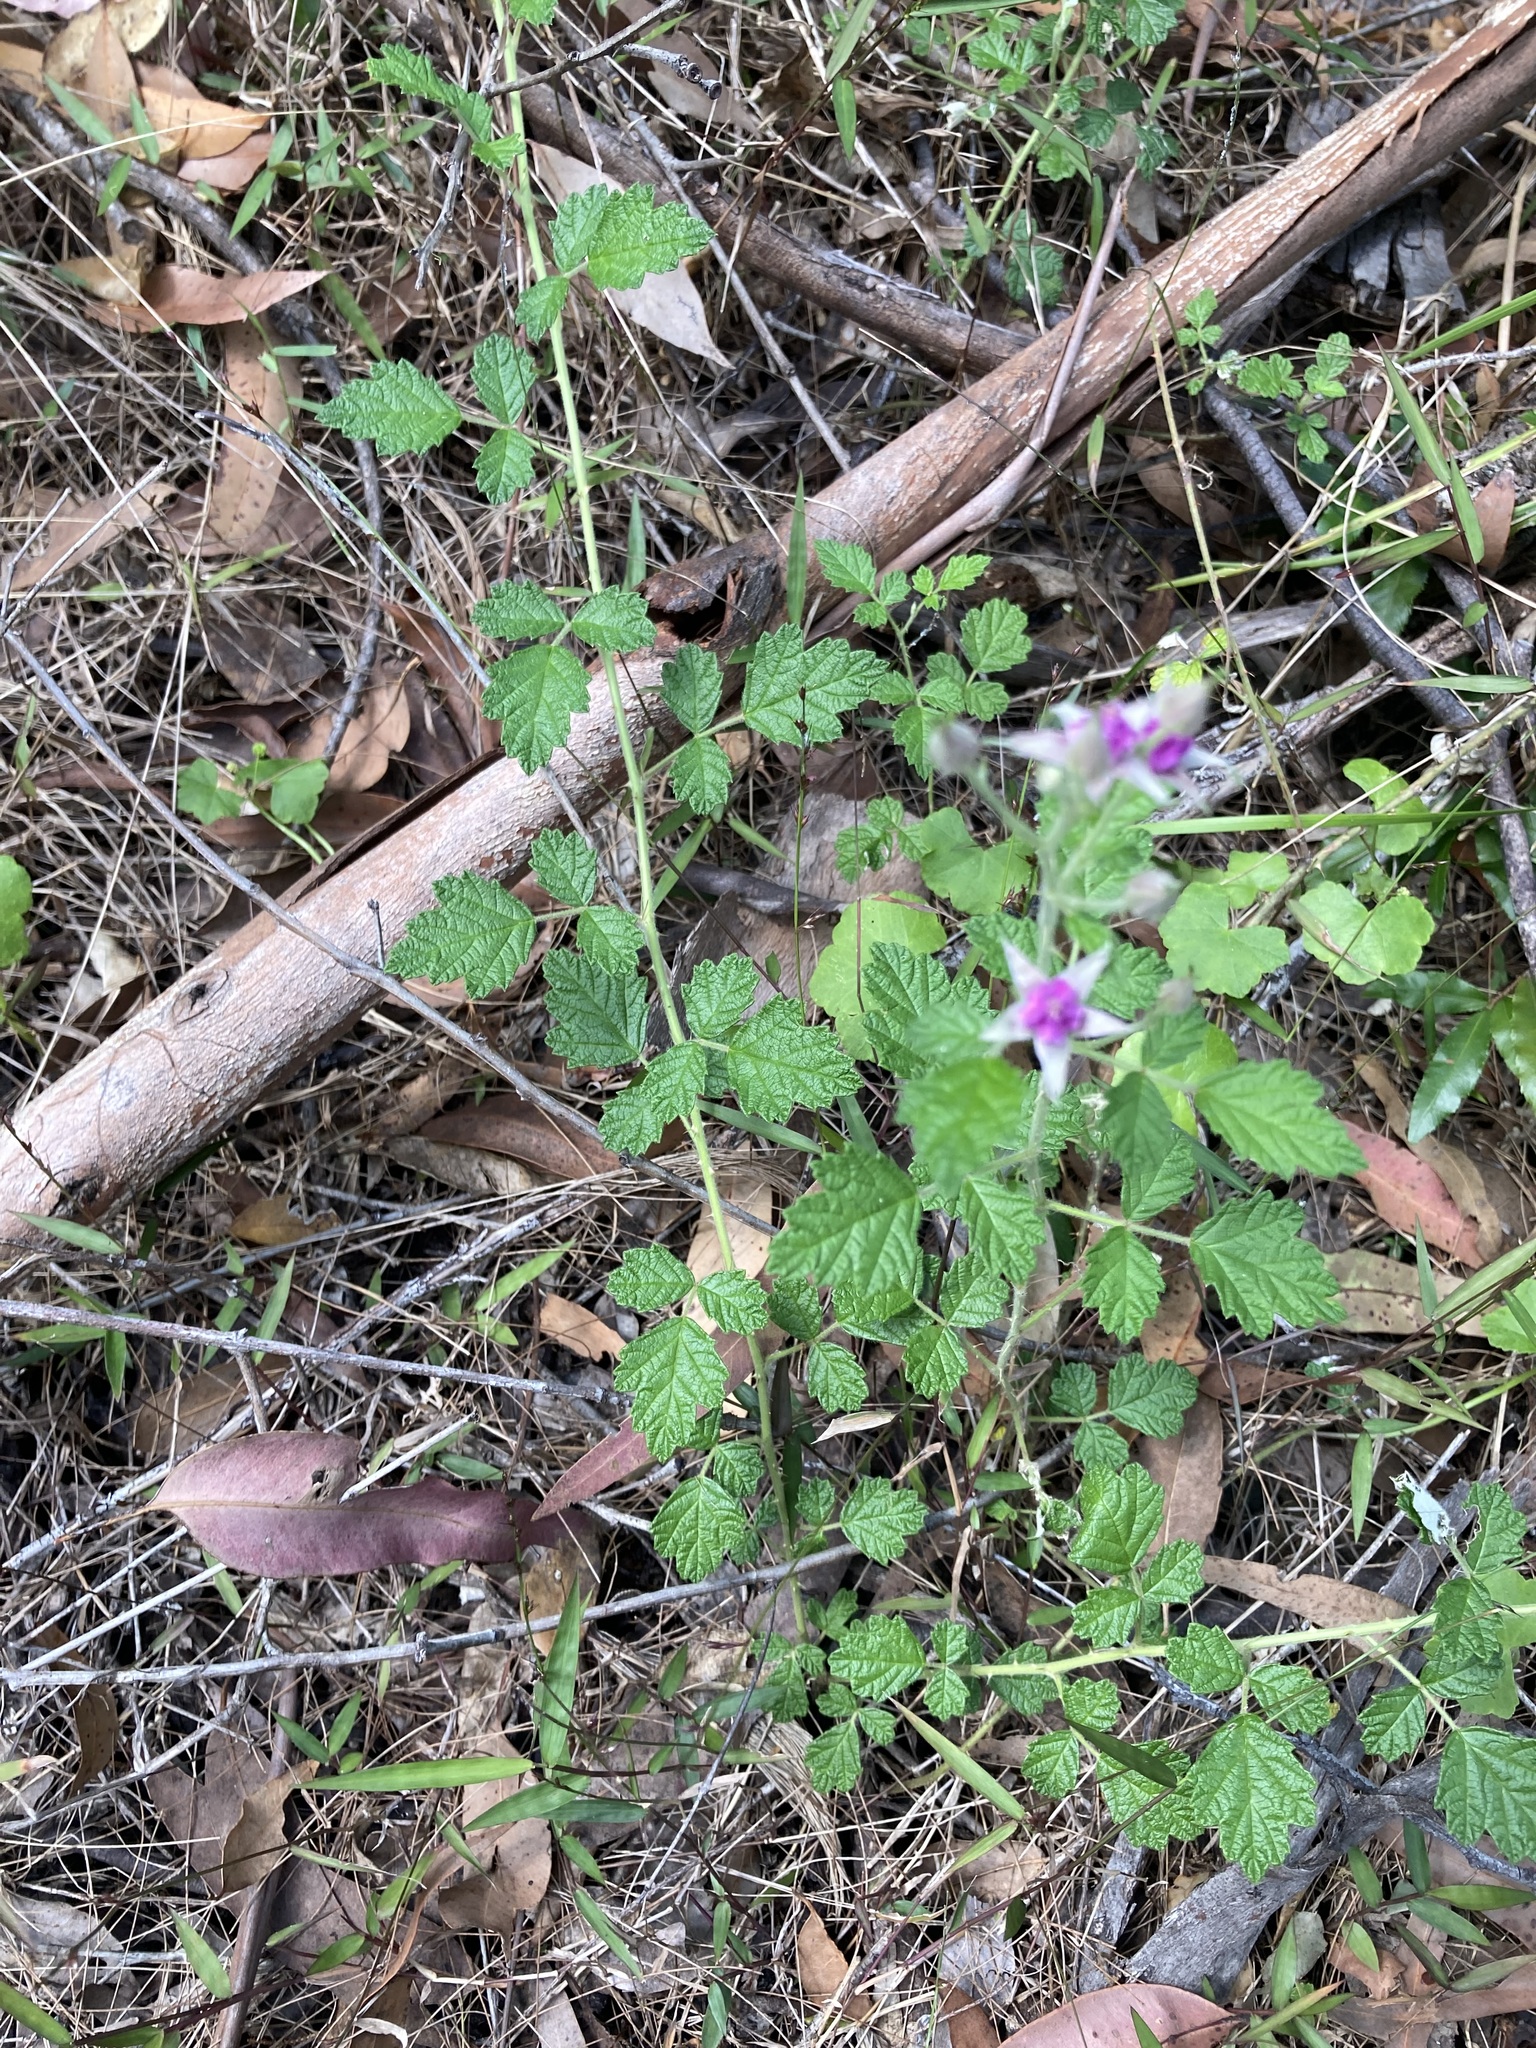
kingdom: Plantae
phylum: Tracheophyta
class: Magnoliopsida
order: Rosales
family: Rosaceae
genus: Rubus
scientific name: Rubus parvifolius
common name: Threeleaf blackberry
